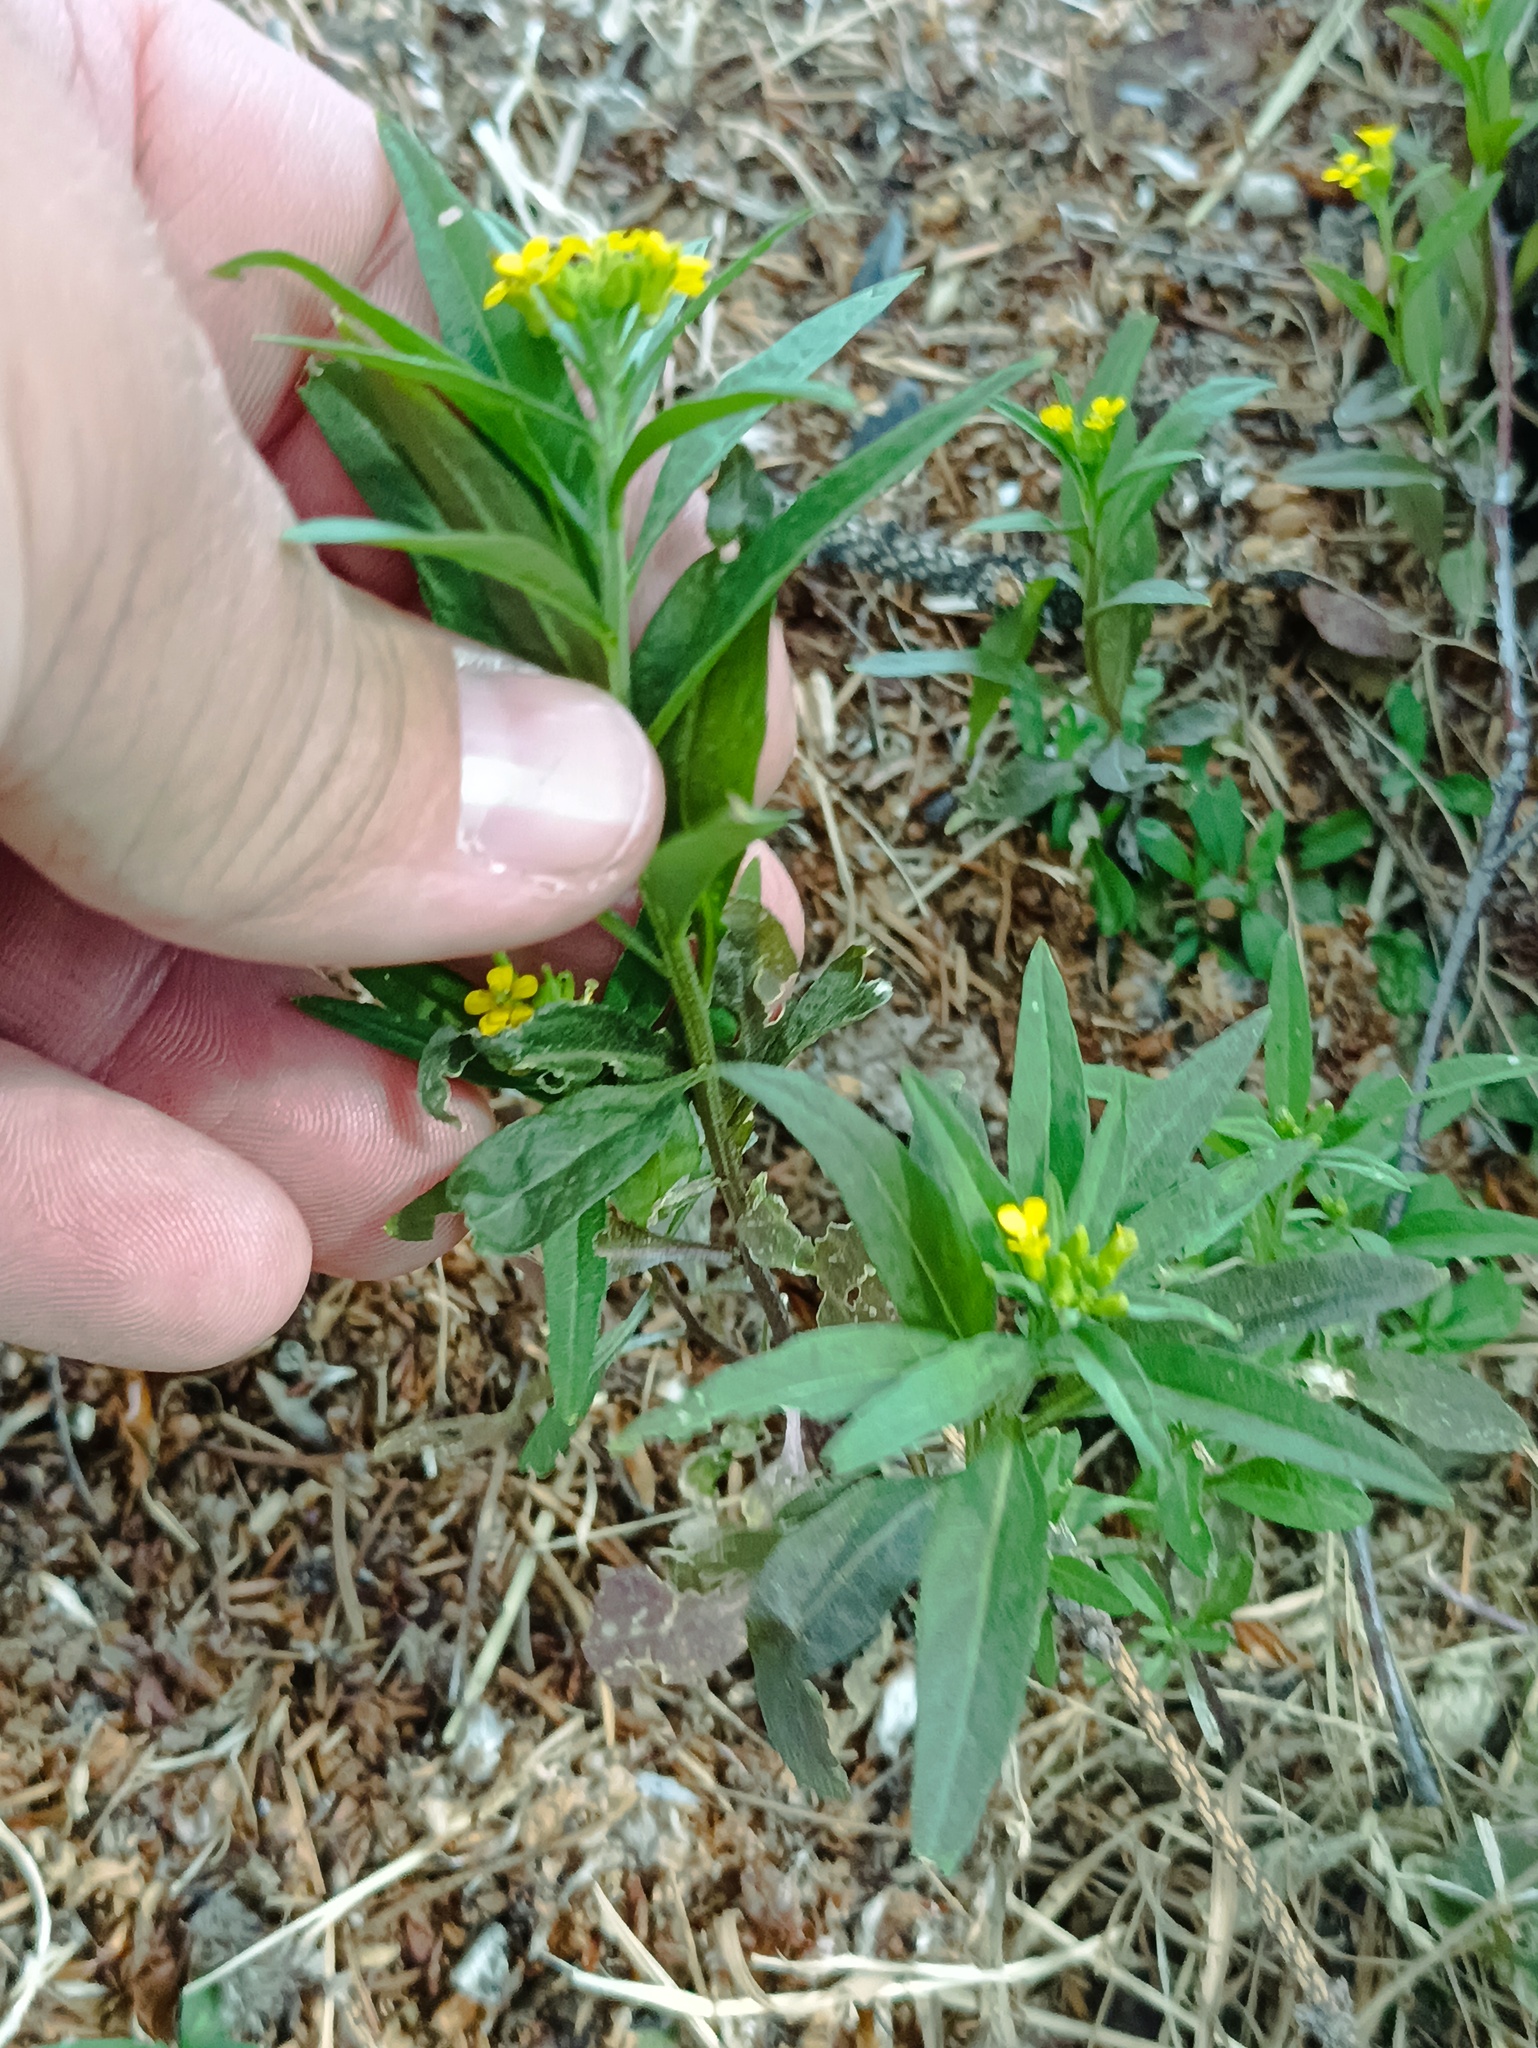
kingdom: Plantae
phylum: Tracheophyta
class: Magnoliopsida
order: Brassicales
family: Brassicaceae
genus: Erysimum
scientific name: Erysimum cheiranthoides
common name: Treacle mustard
